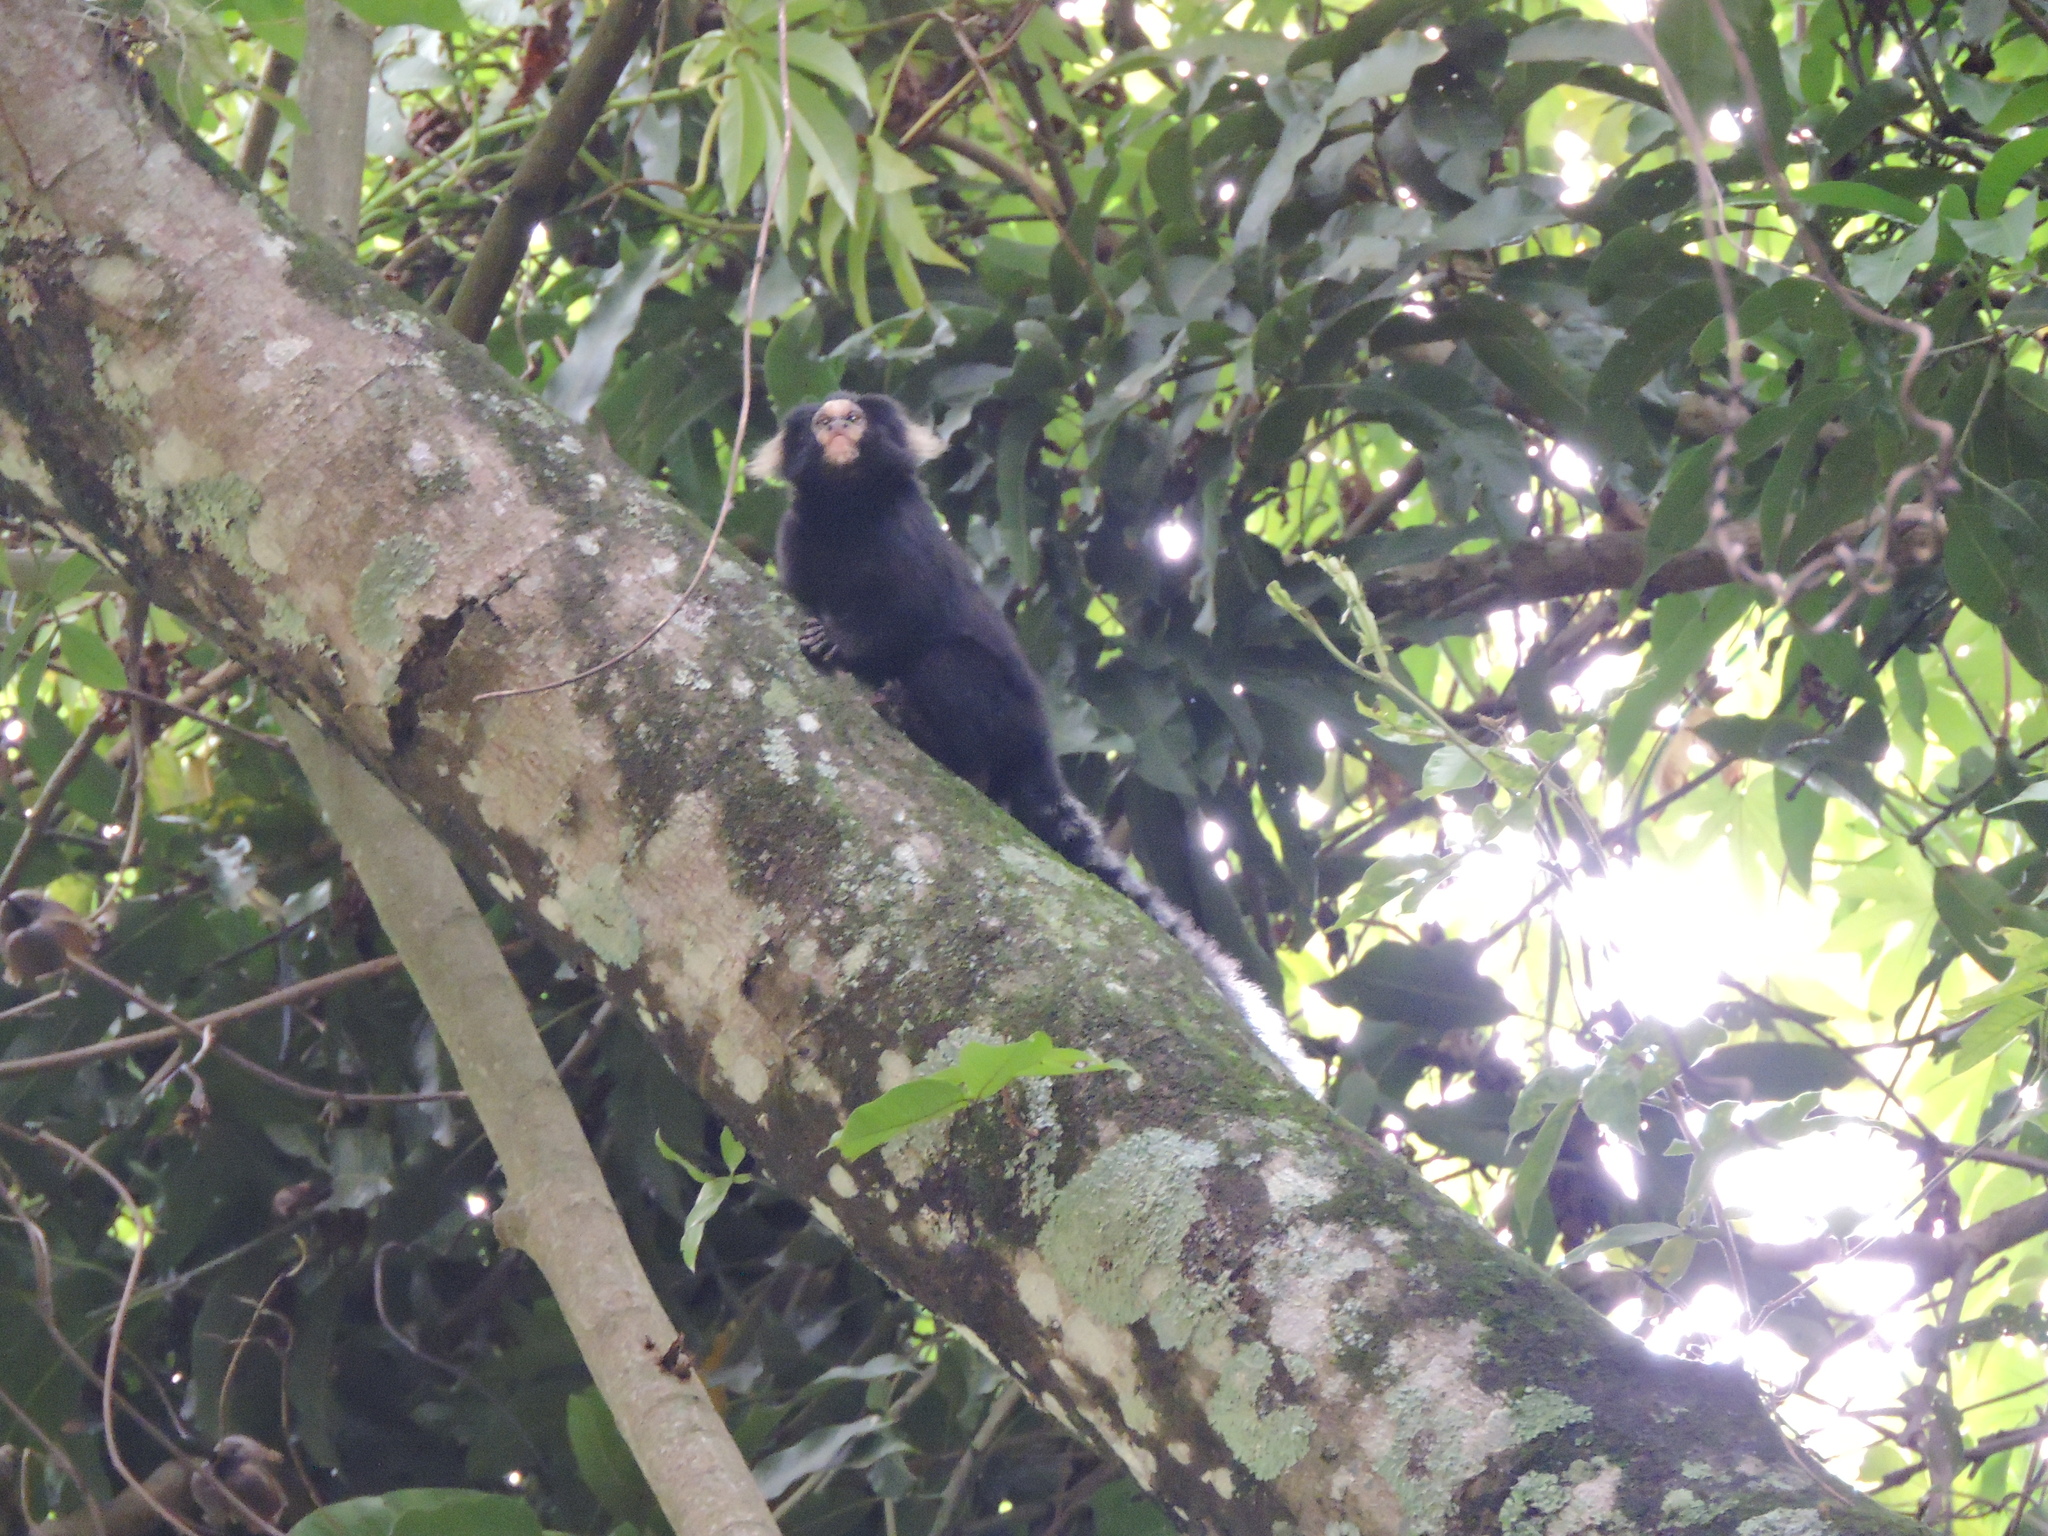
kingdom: Animalia
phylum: Chordata
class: Mammalia
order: Primates
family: Callitrichidae
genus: Callithrix
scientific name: Callithrix aurita
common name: Buffy-tufted marmoset
